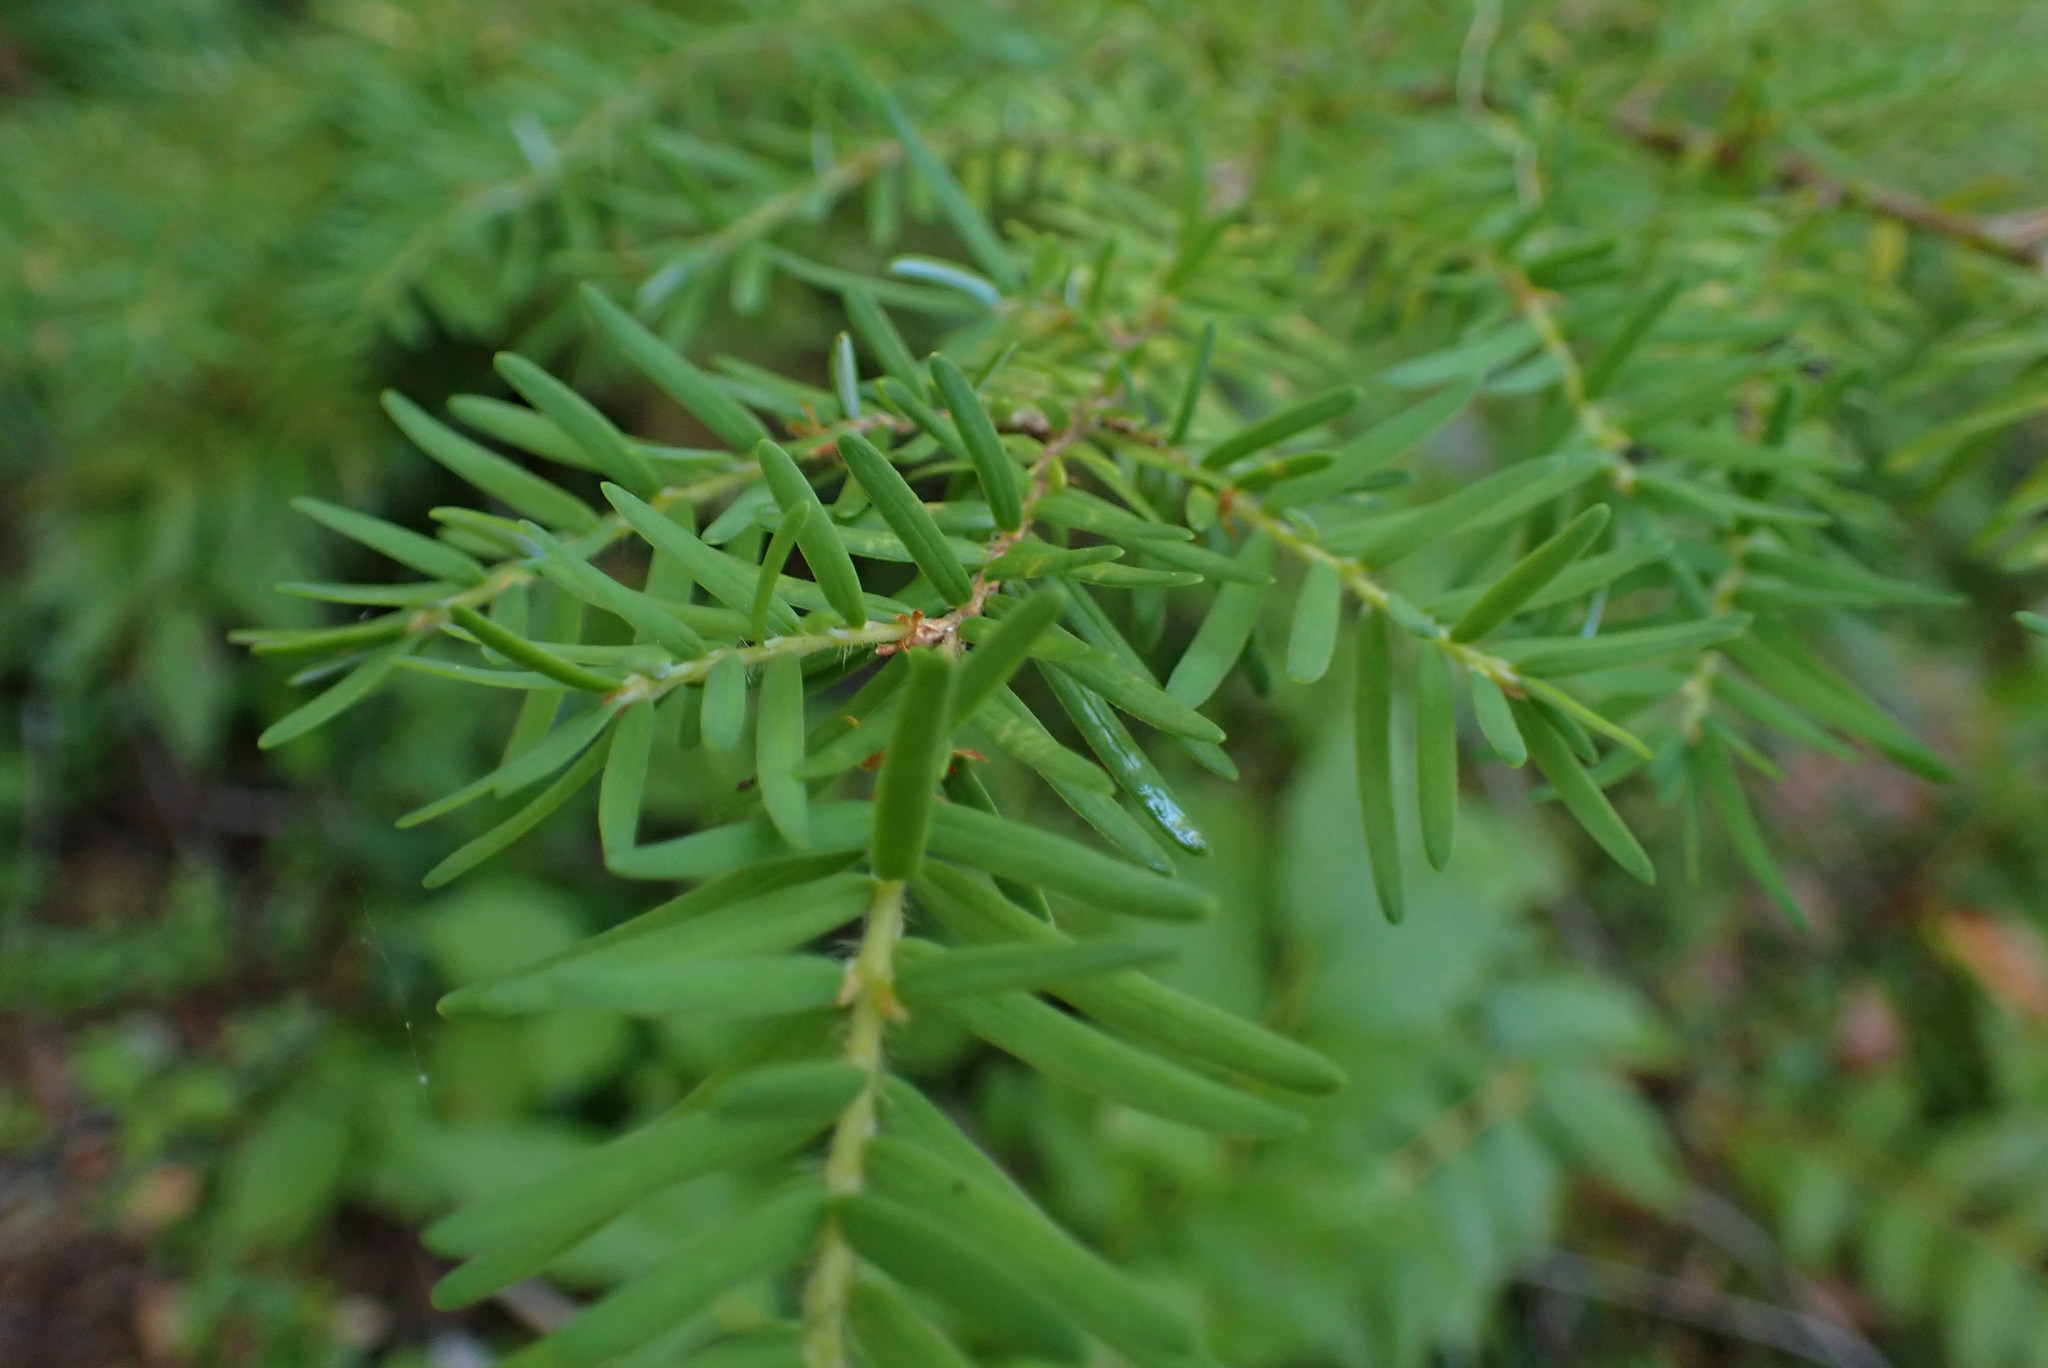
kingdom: Plantae
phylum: Tracheophyta
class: Pinopsida
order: Pinales
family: Pinaceae
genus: Tsuga
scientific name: Tsuga heterophylla
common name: Western hemlock
